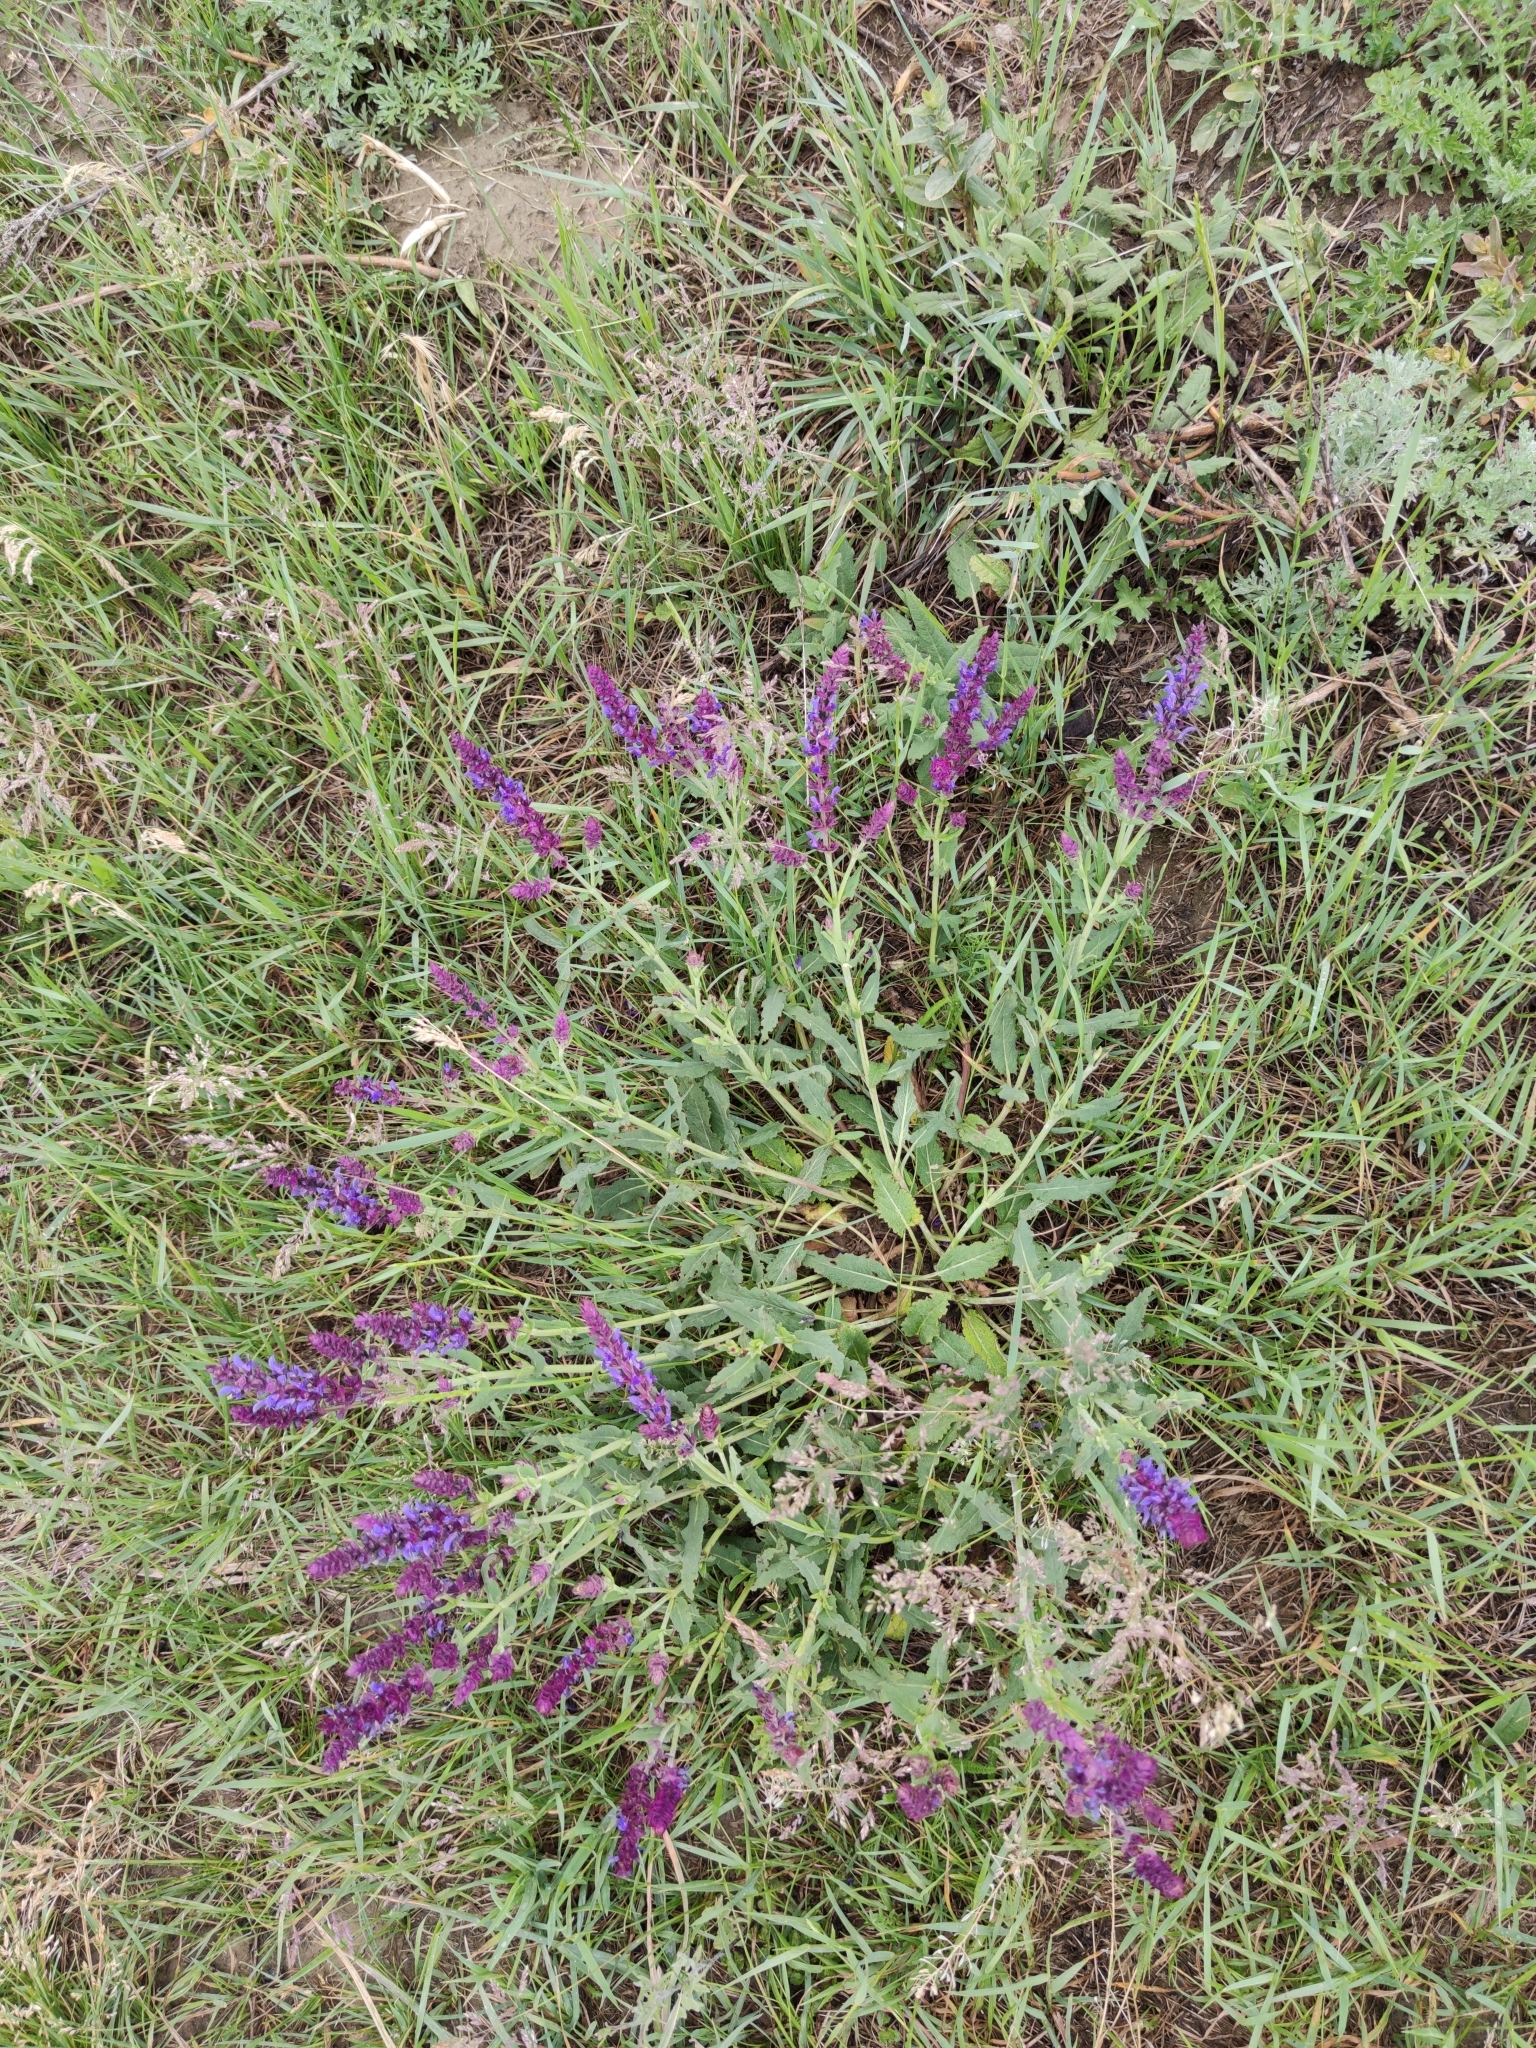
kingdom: Plantae
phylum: Tracheophyta
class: Magnoliopsida
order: Lamiales
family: Lamiaceae
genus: Salvia
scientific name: Salvia nemorosa
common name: Balkan clary
